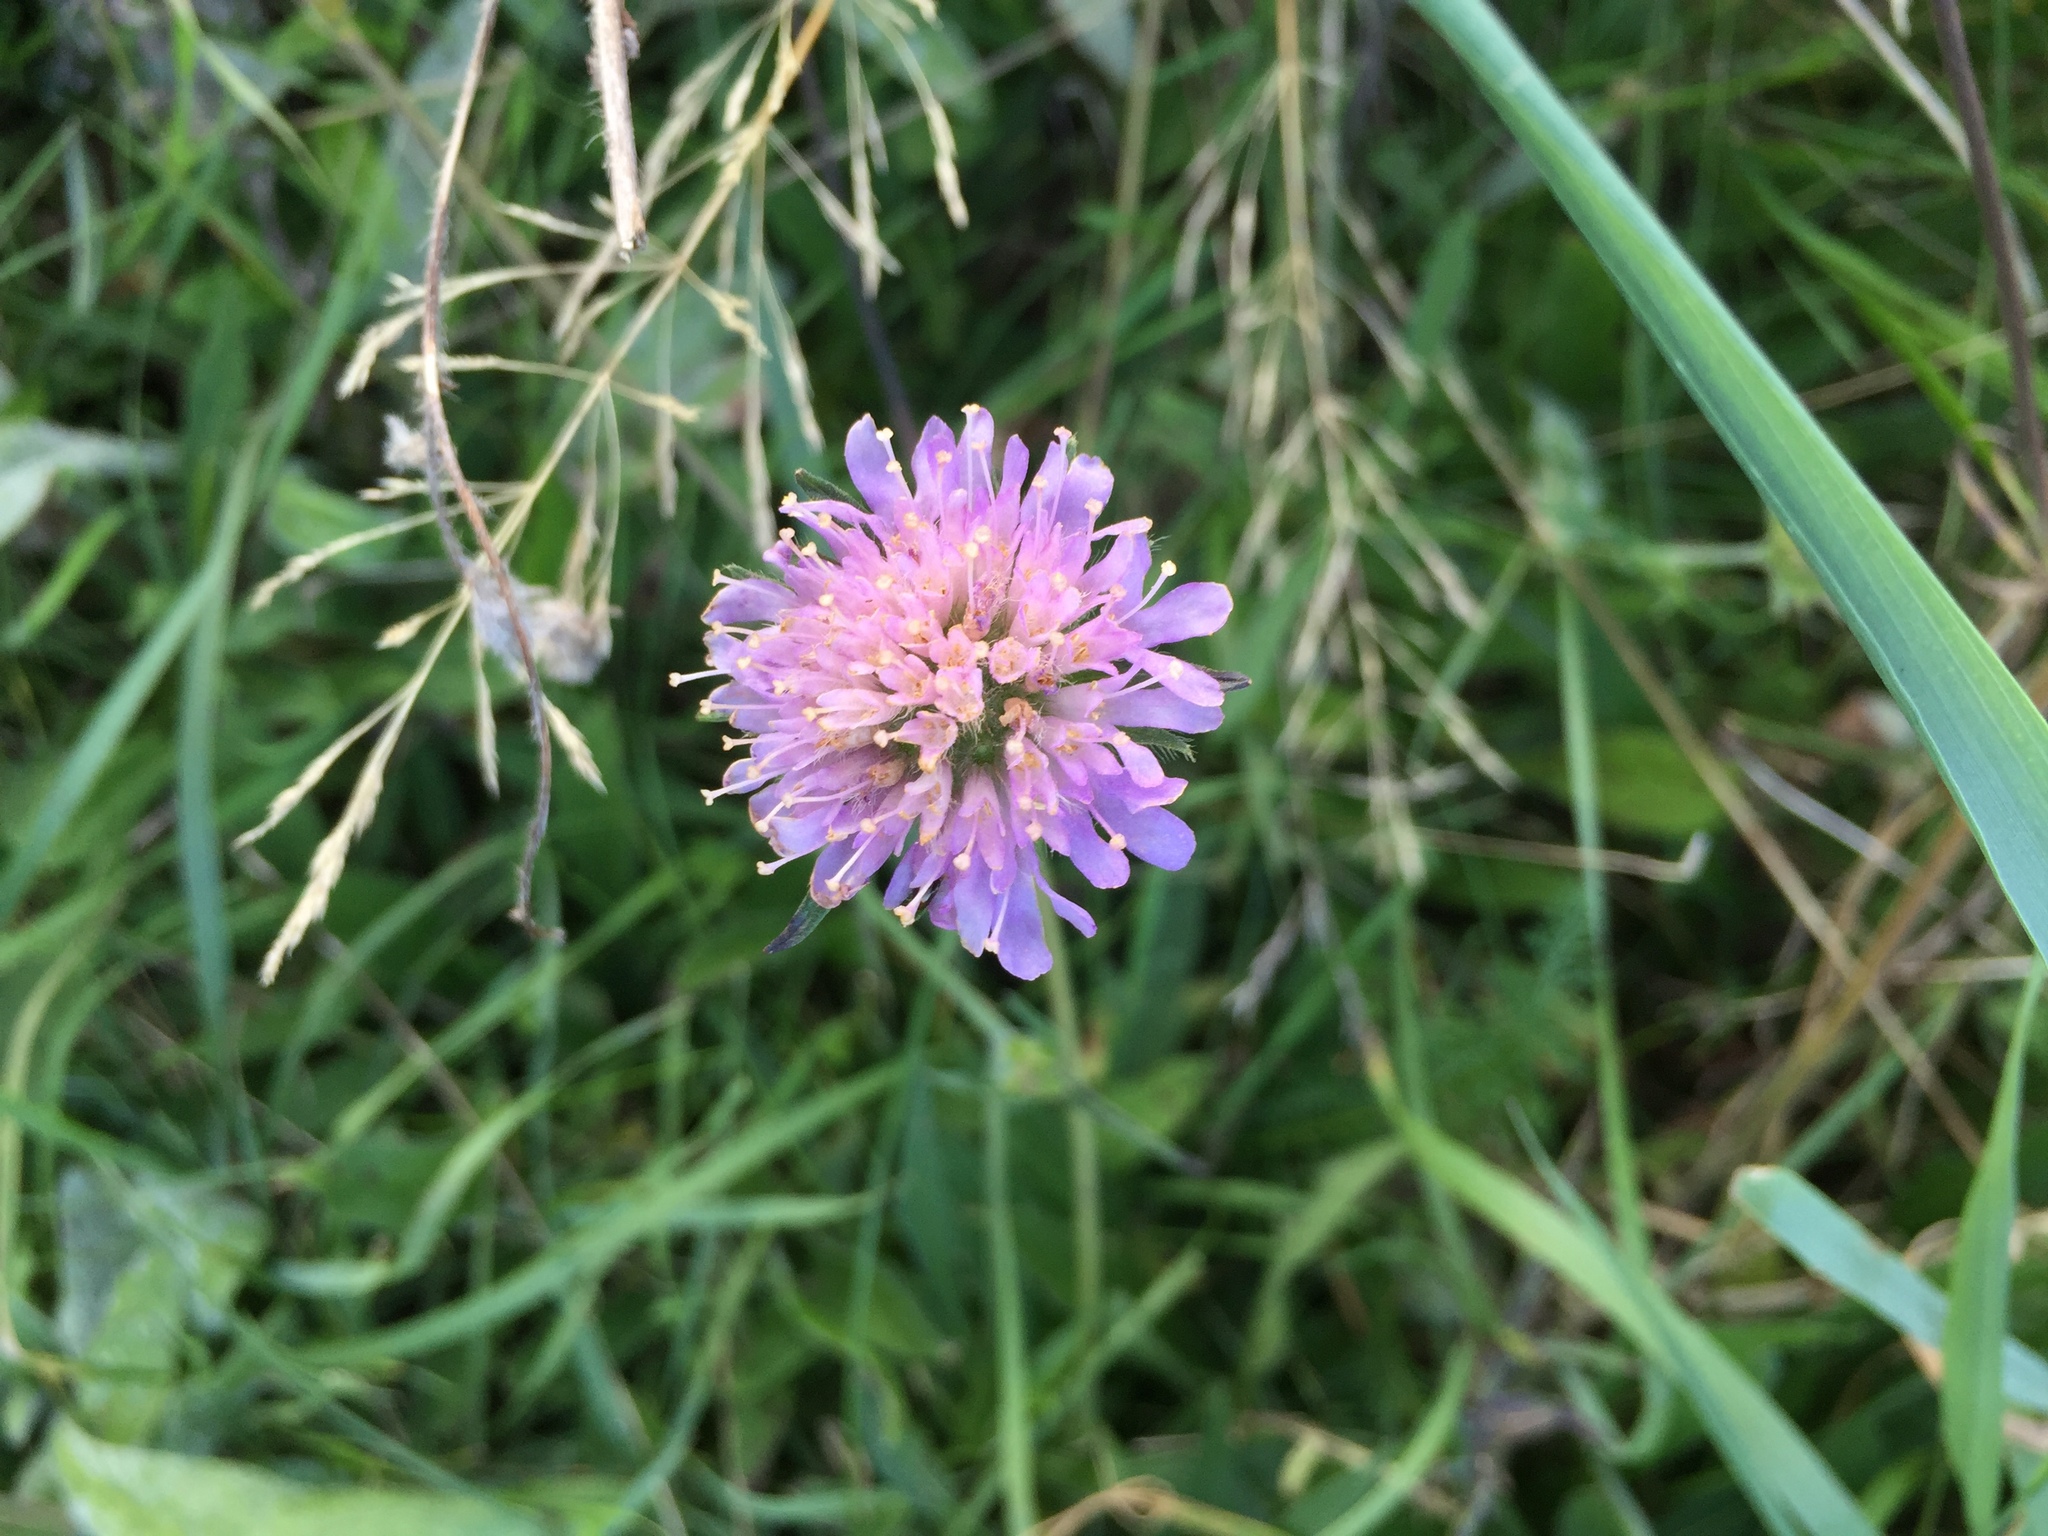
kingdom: Plantae
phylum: Tracheophyta
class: Magnoliopsida
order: Dipsacales
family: Caprifoliaceae
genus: Knautia
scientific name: Knautia arvensis
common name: Field scabiosa
